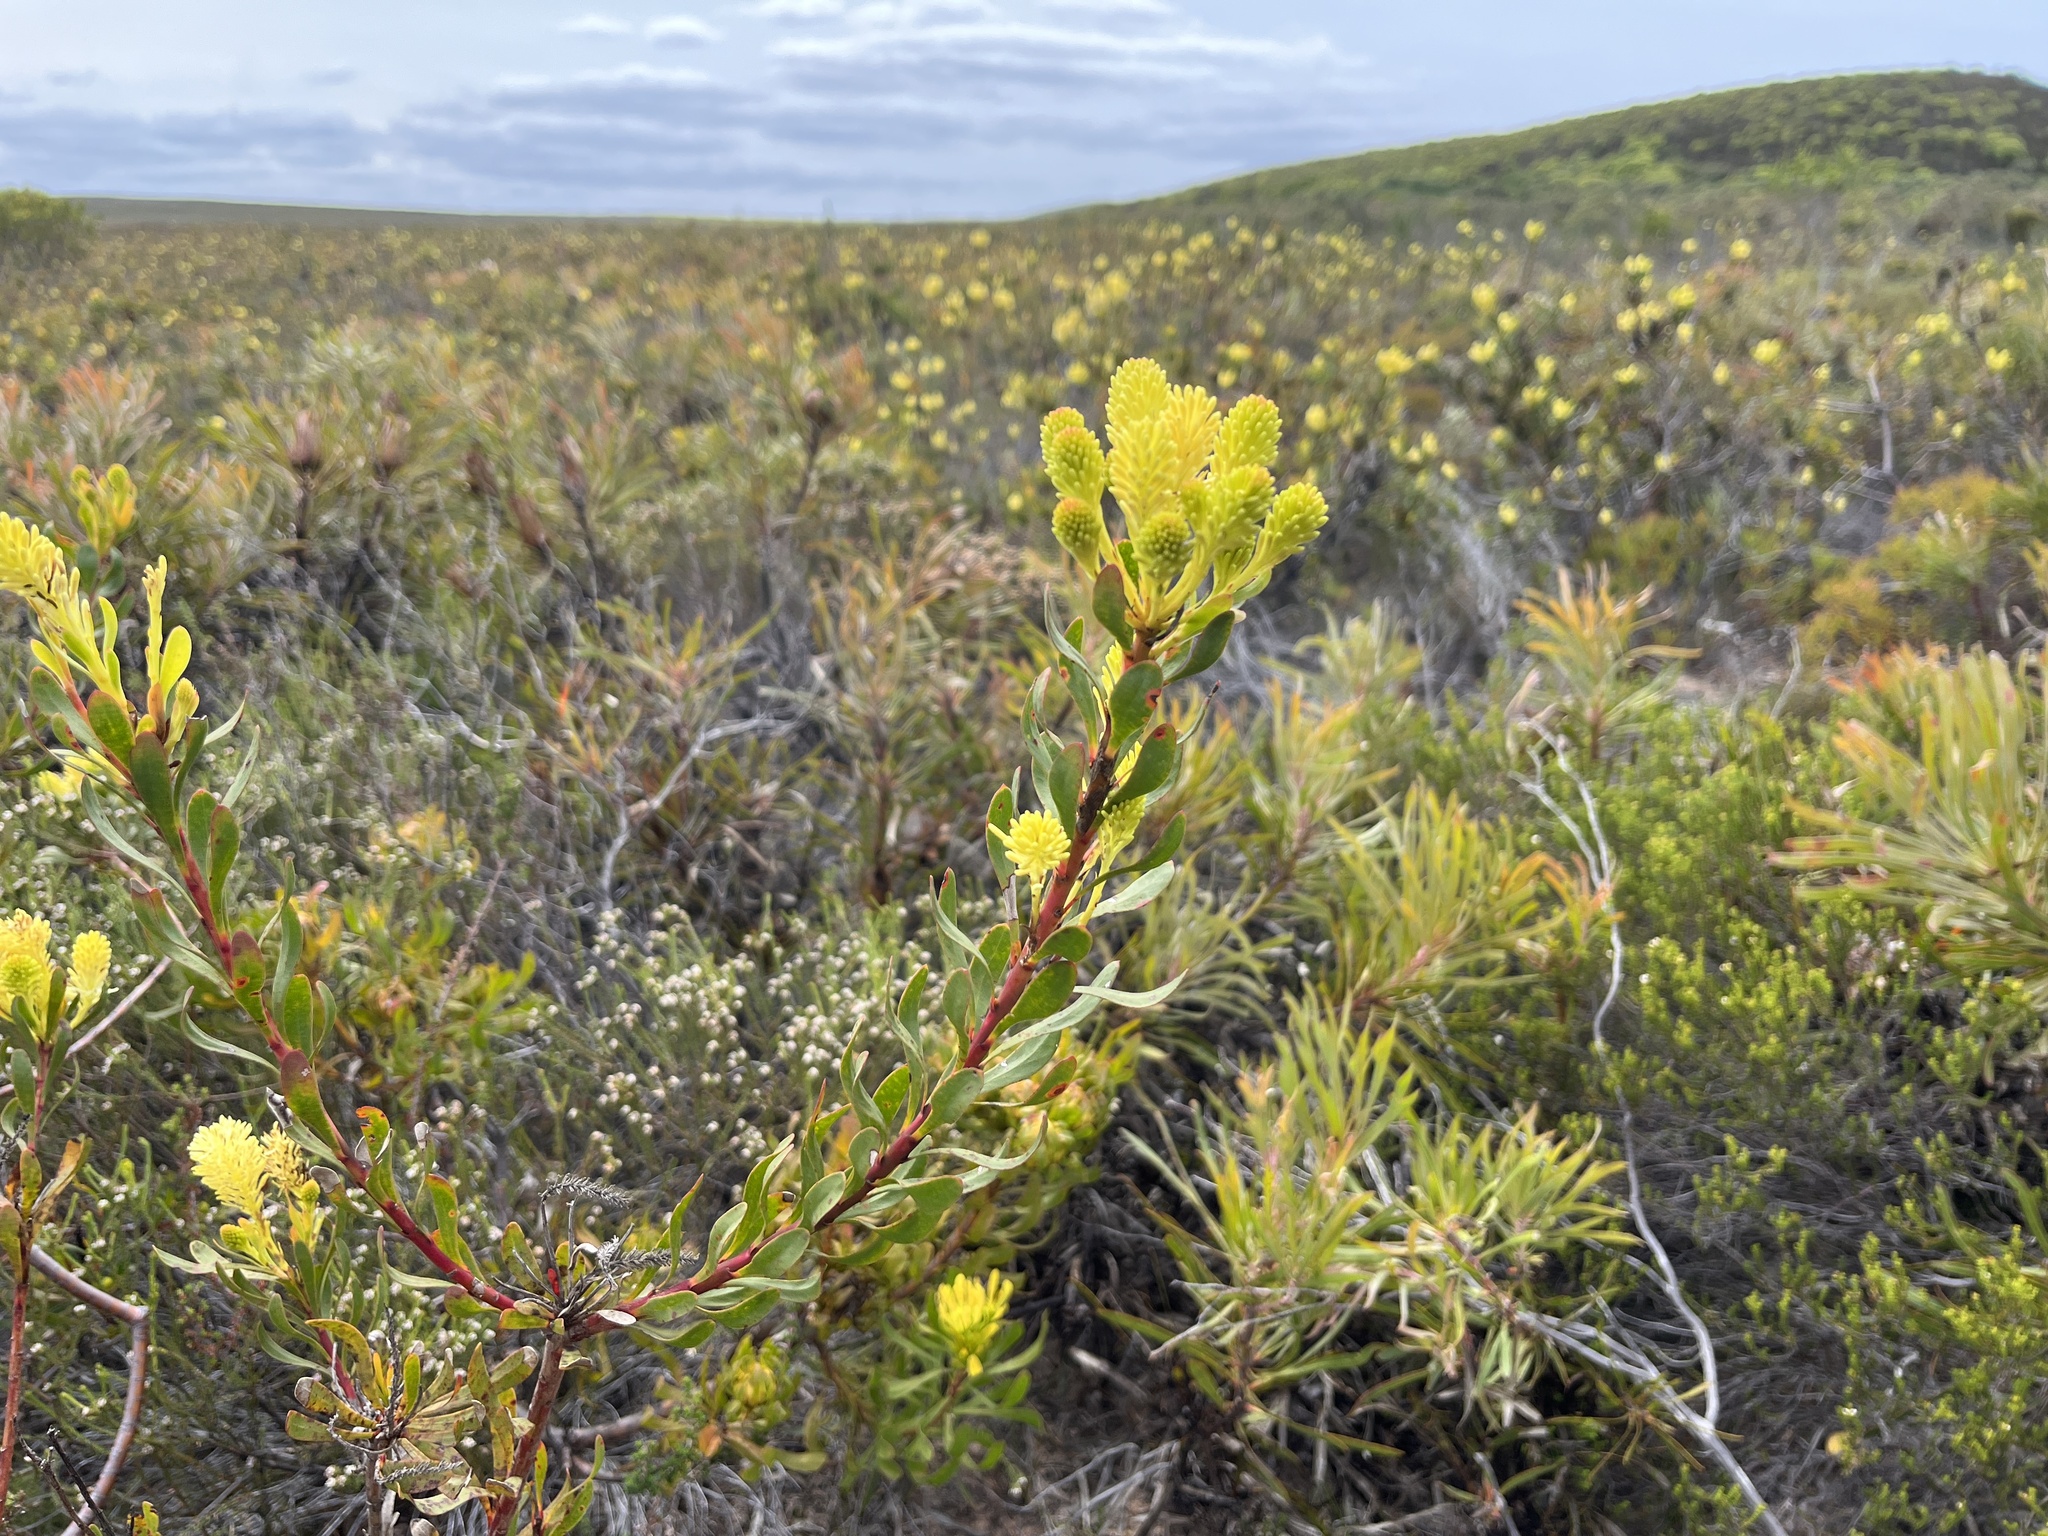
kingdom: Plantae
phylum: Tracheophyta
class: Magnoliopsida
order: Proteales
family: Proteaceae
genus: Aulax
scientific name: Aulax umbellata
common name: Broad-leaf featherbush
